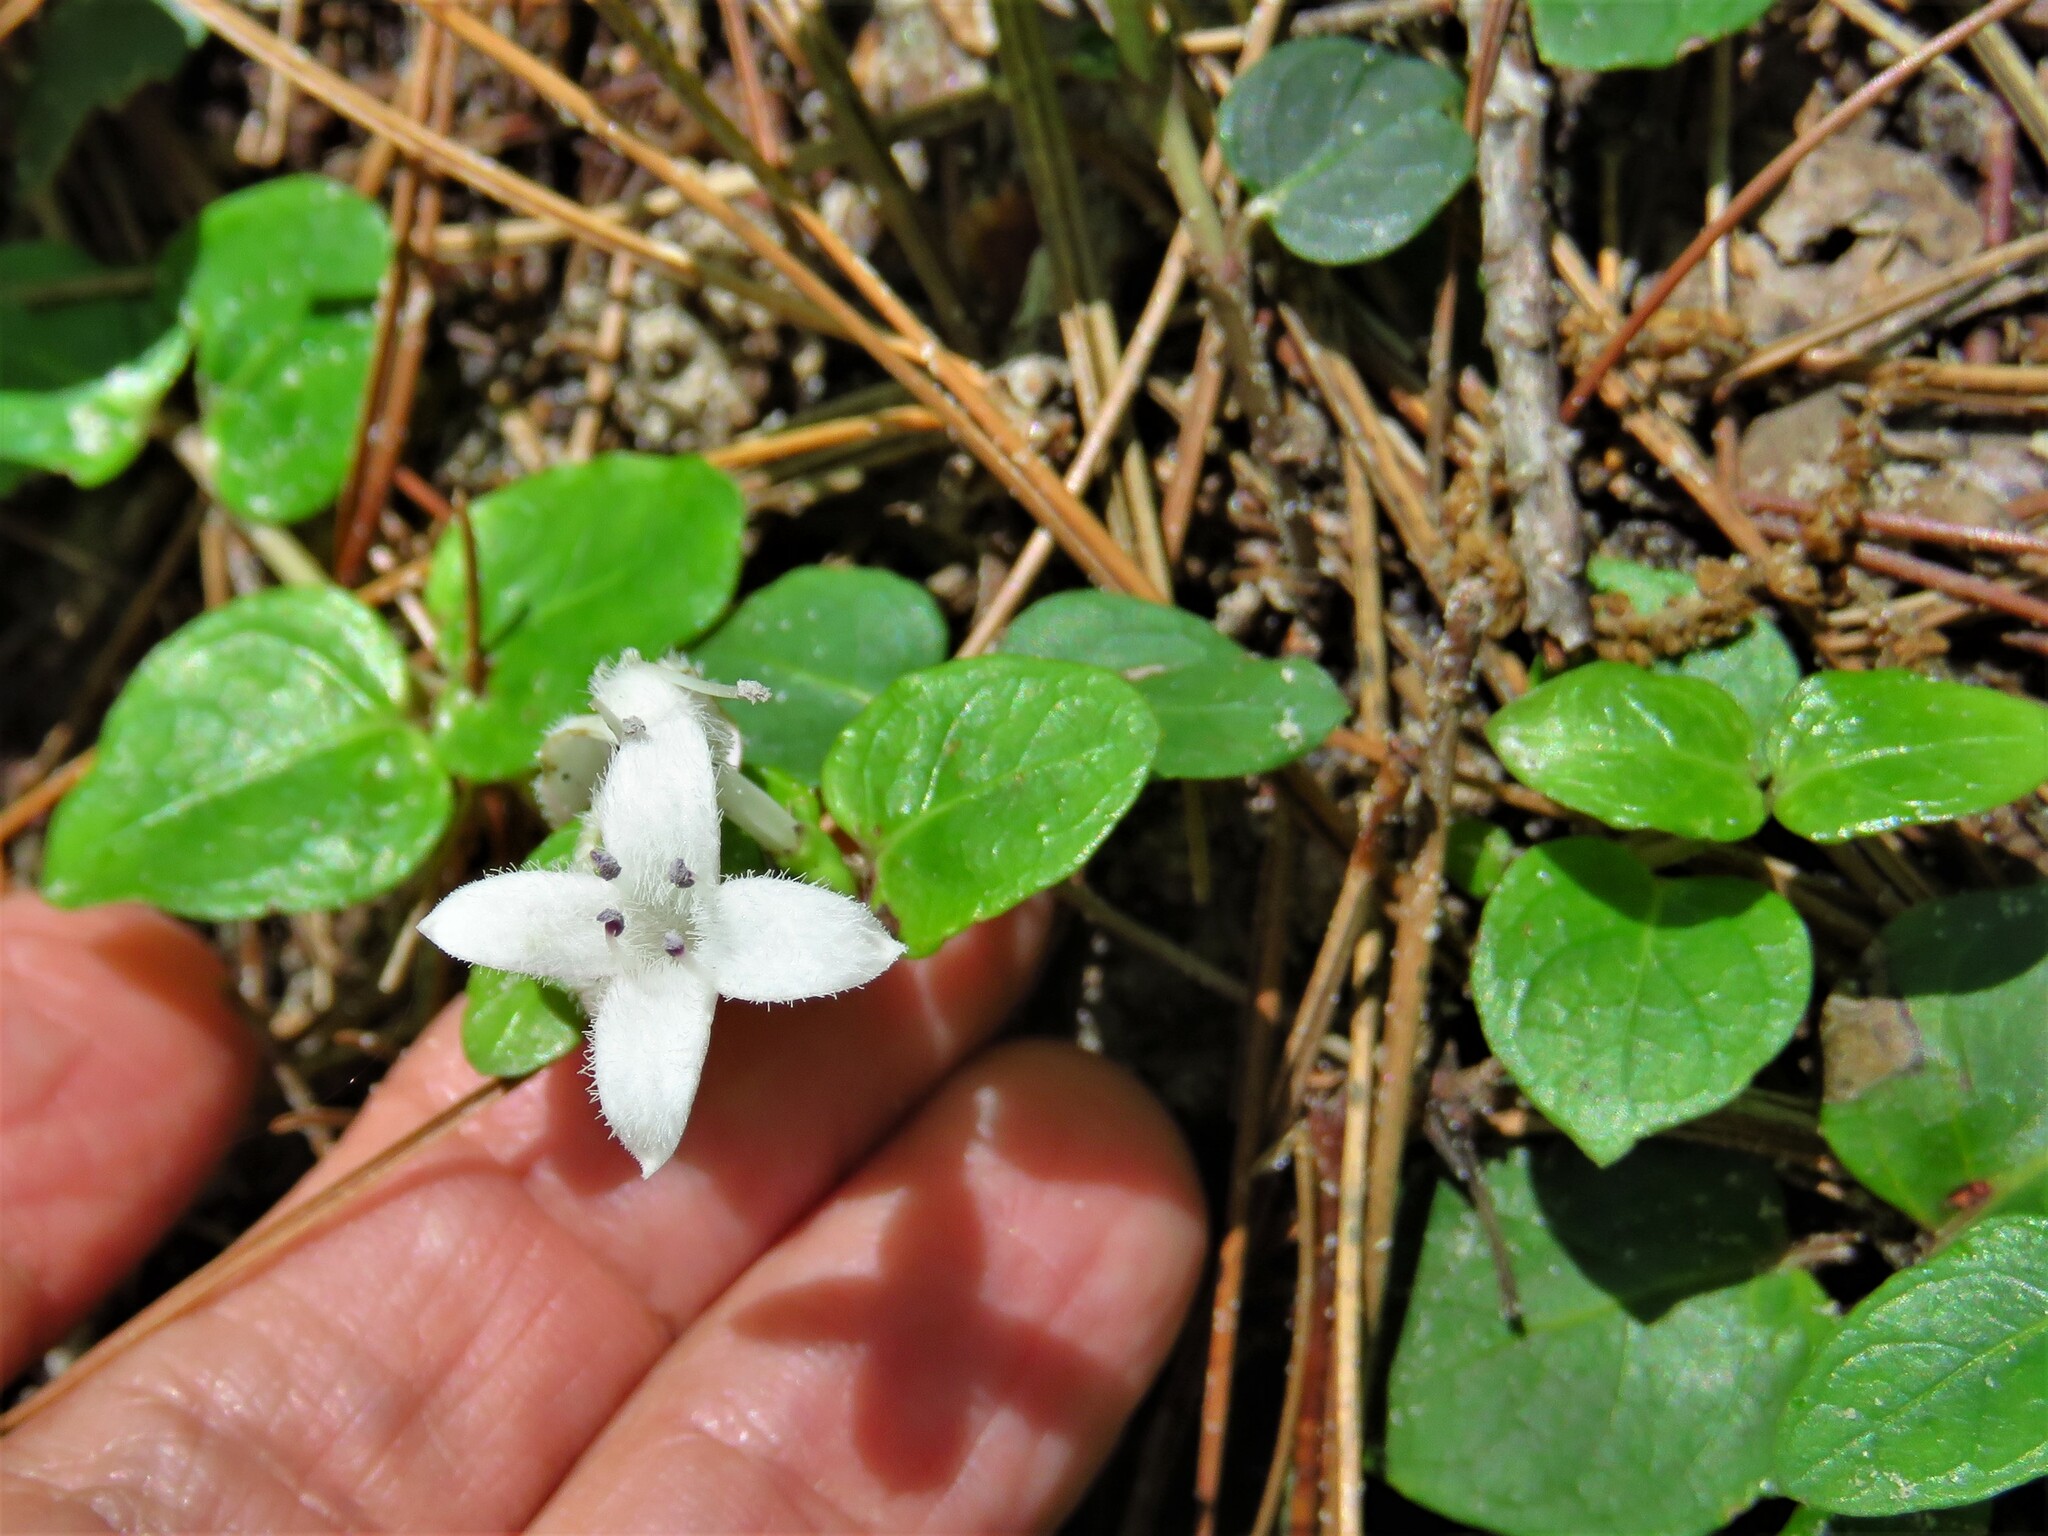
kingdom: Plantae
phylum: Tracheophyta
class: Magnoliopsida
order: Gentianales
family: Rubiaceae
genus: Mitchella
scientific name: Mitchella repens
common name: Partridge-berry
